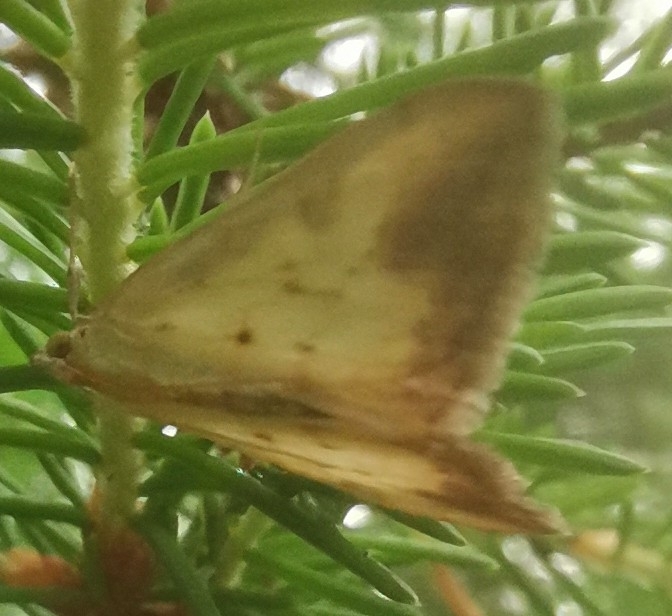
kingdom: Animalia
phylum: Arthropoda
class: Insecta
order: Lepidoptera
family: Crambidae
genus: Evergestis
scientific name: Evergestis extimalis
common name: Marbled yellow pearl
